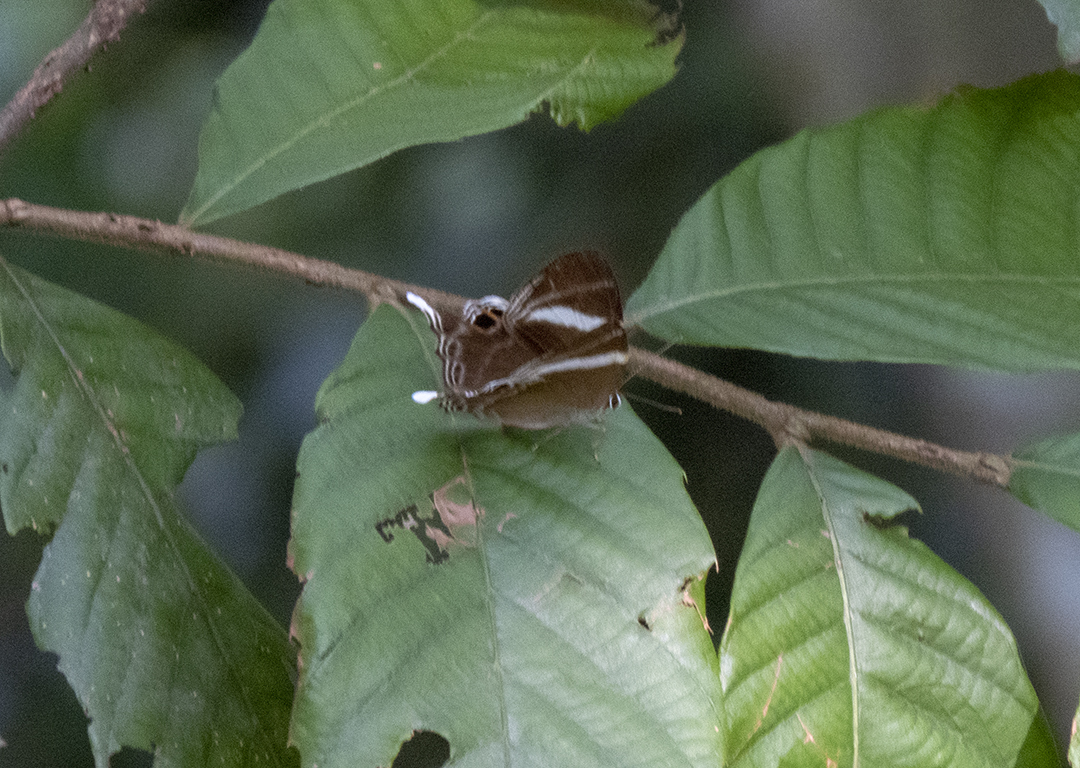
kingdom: Animalia
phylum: Arthropoda
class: Insecta
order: Lepidoptera
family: Lycaenidae
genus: Abisara
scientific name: Abisara neophron
